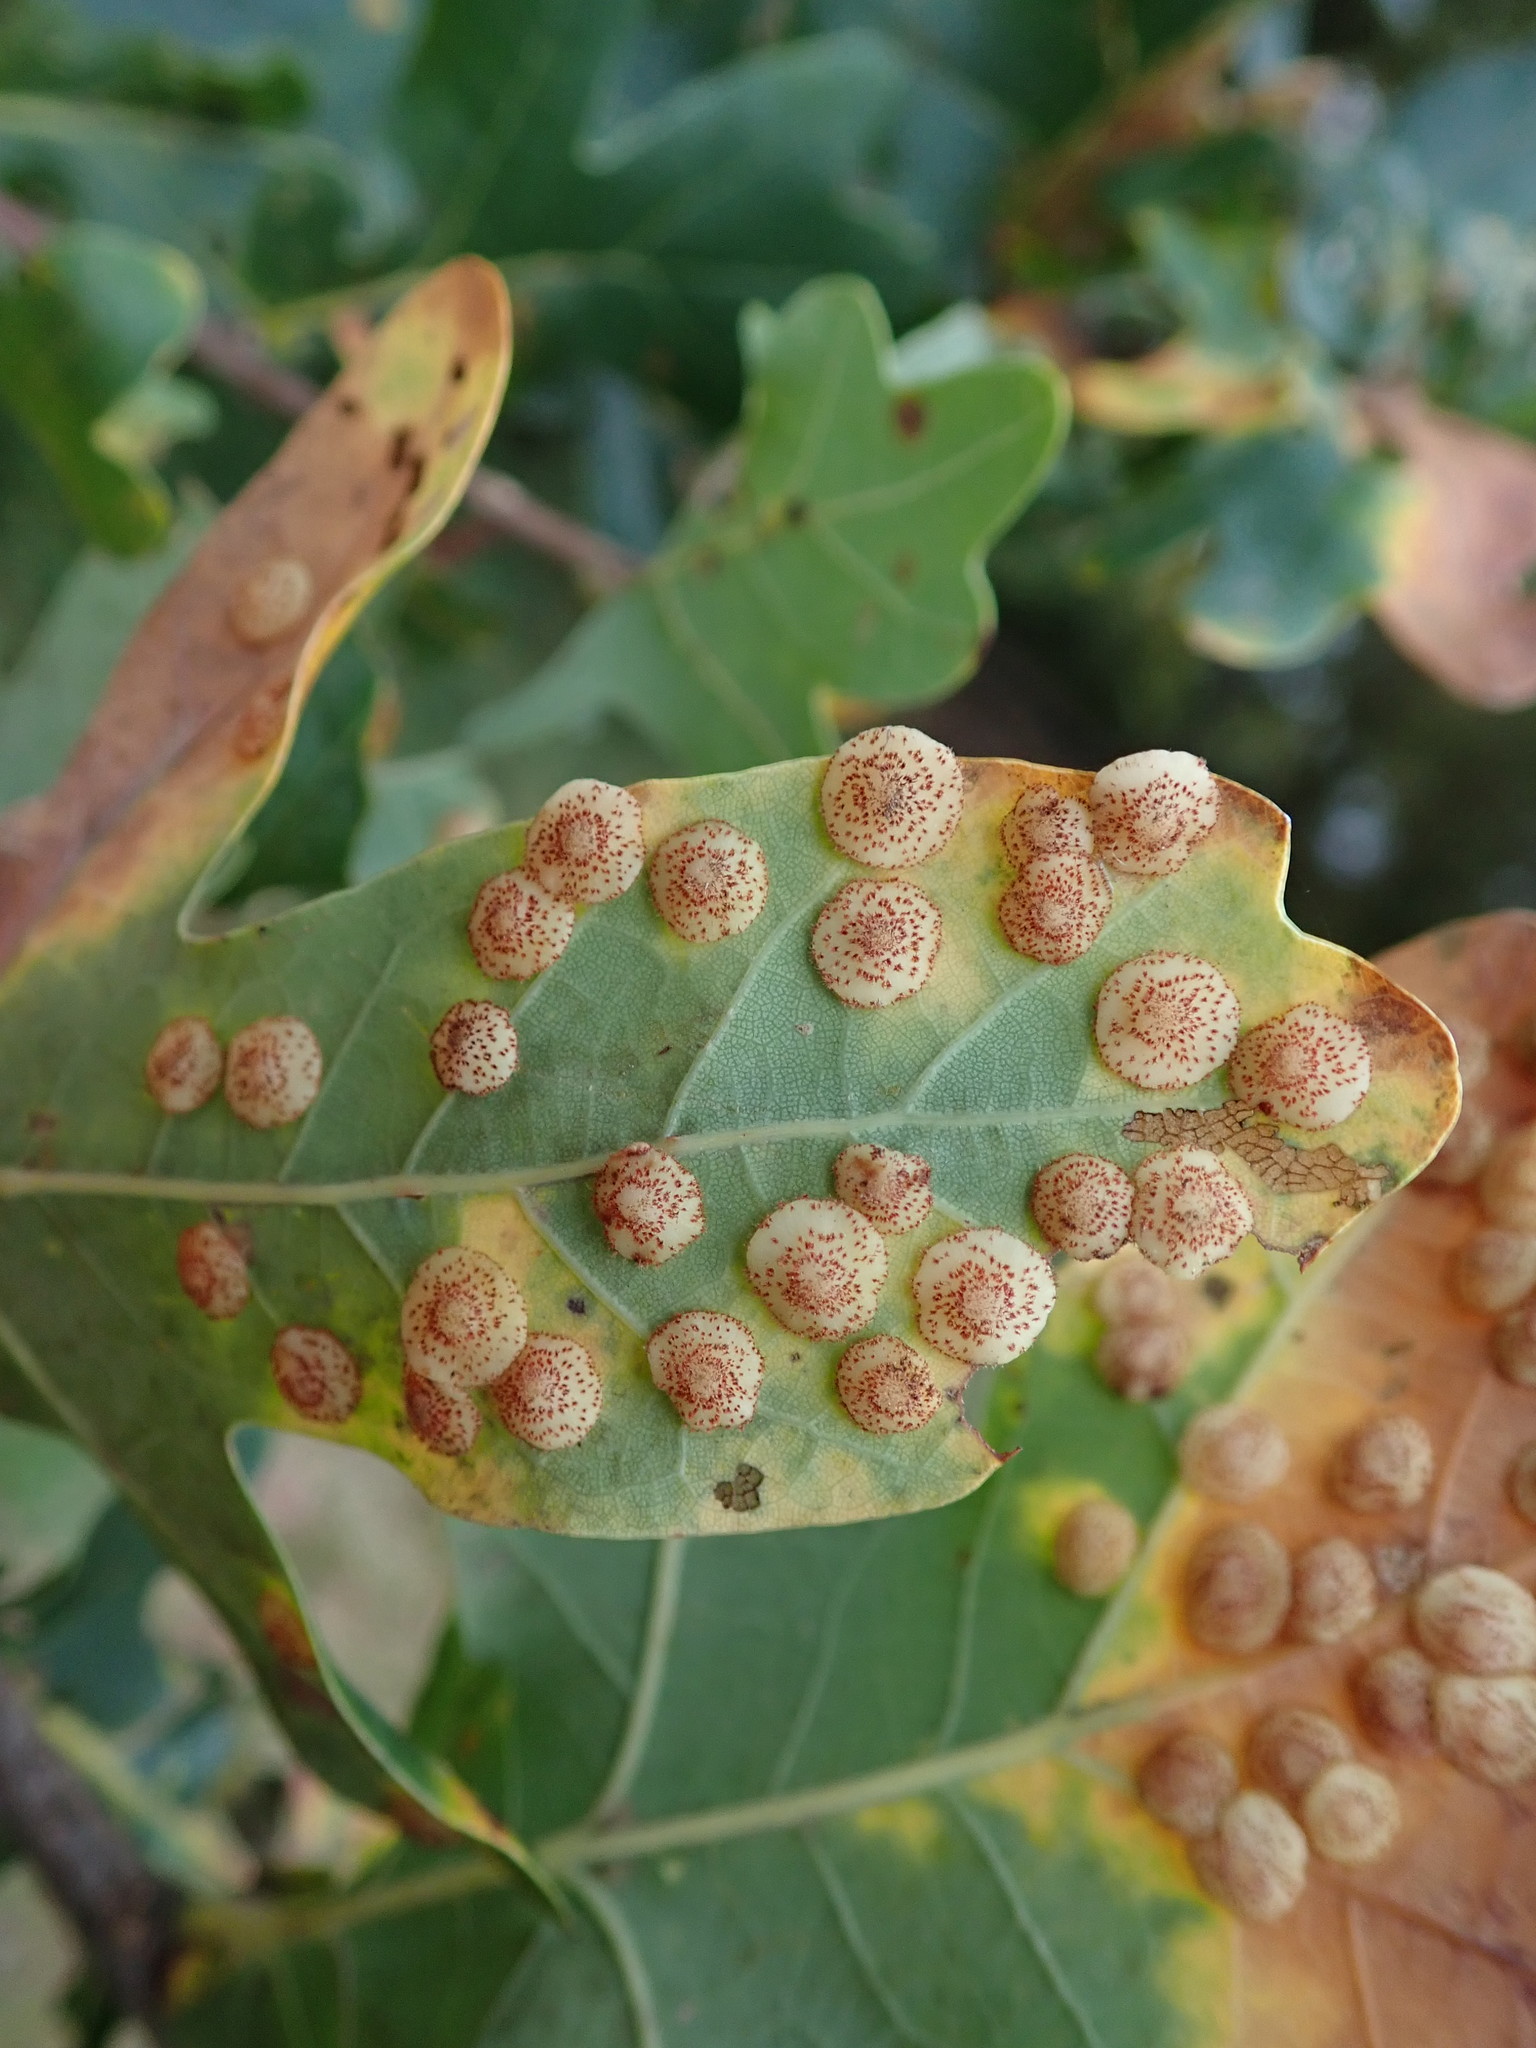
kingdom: Animalia
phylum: Arthropoda
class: Insecta
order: Hymenoptera
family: Cynipidae
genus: Neuroterus
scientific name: Neuroterus quercusbaccarum
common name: Common spangle gall
